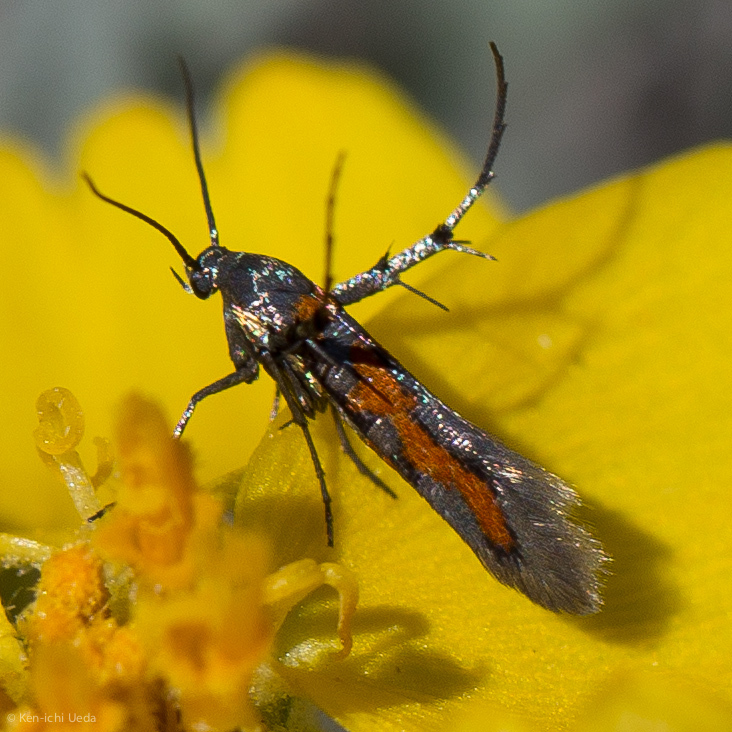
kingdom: Animalia
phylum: Arthropoda
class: Insecta
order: Lepidoptera
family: Heliodinidae
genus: Heliodines
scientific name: Heliodines
